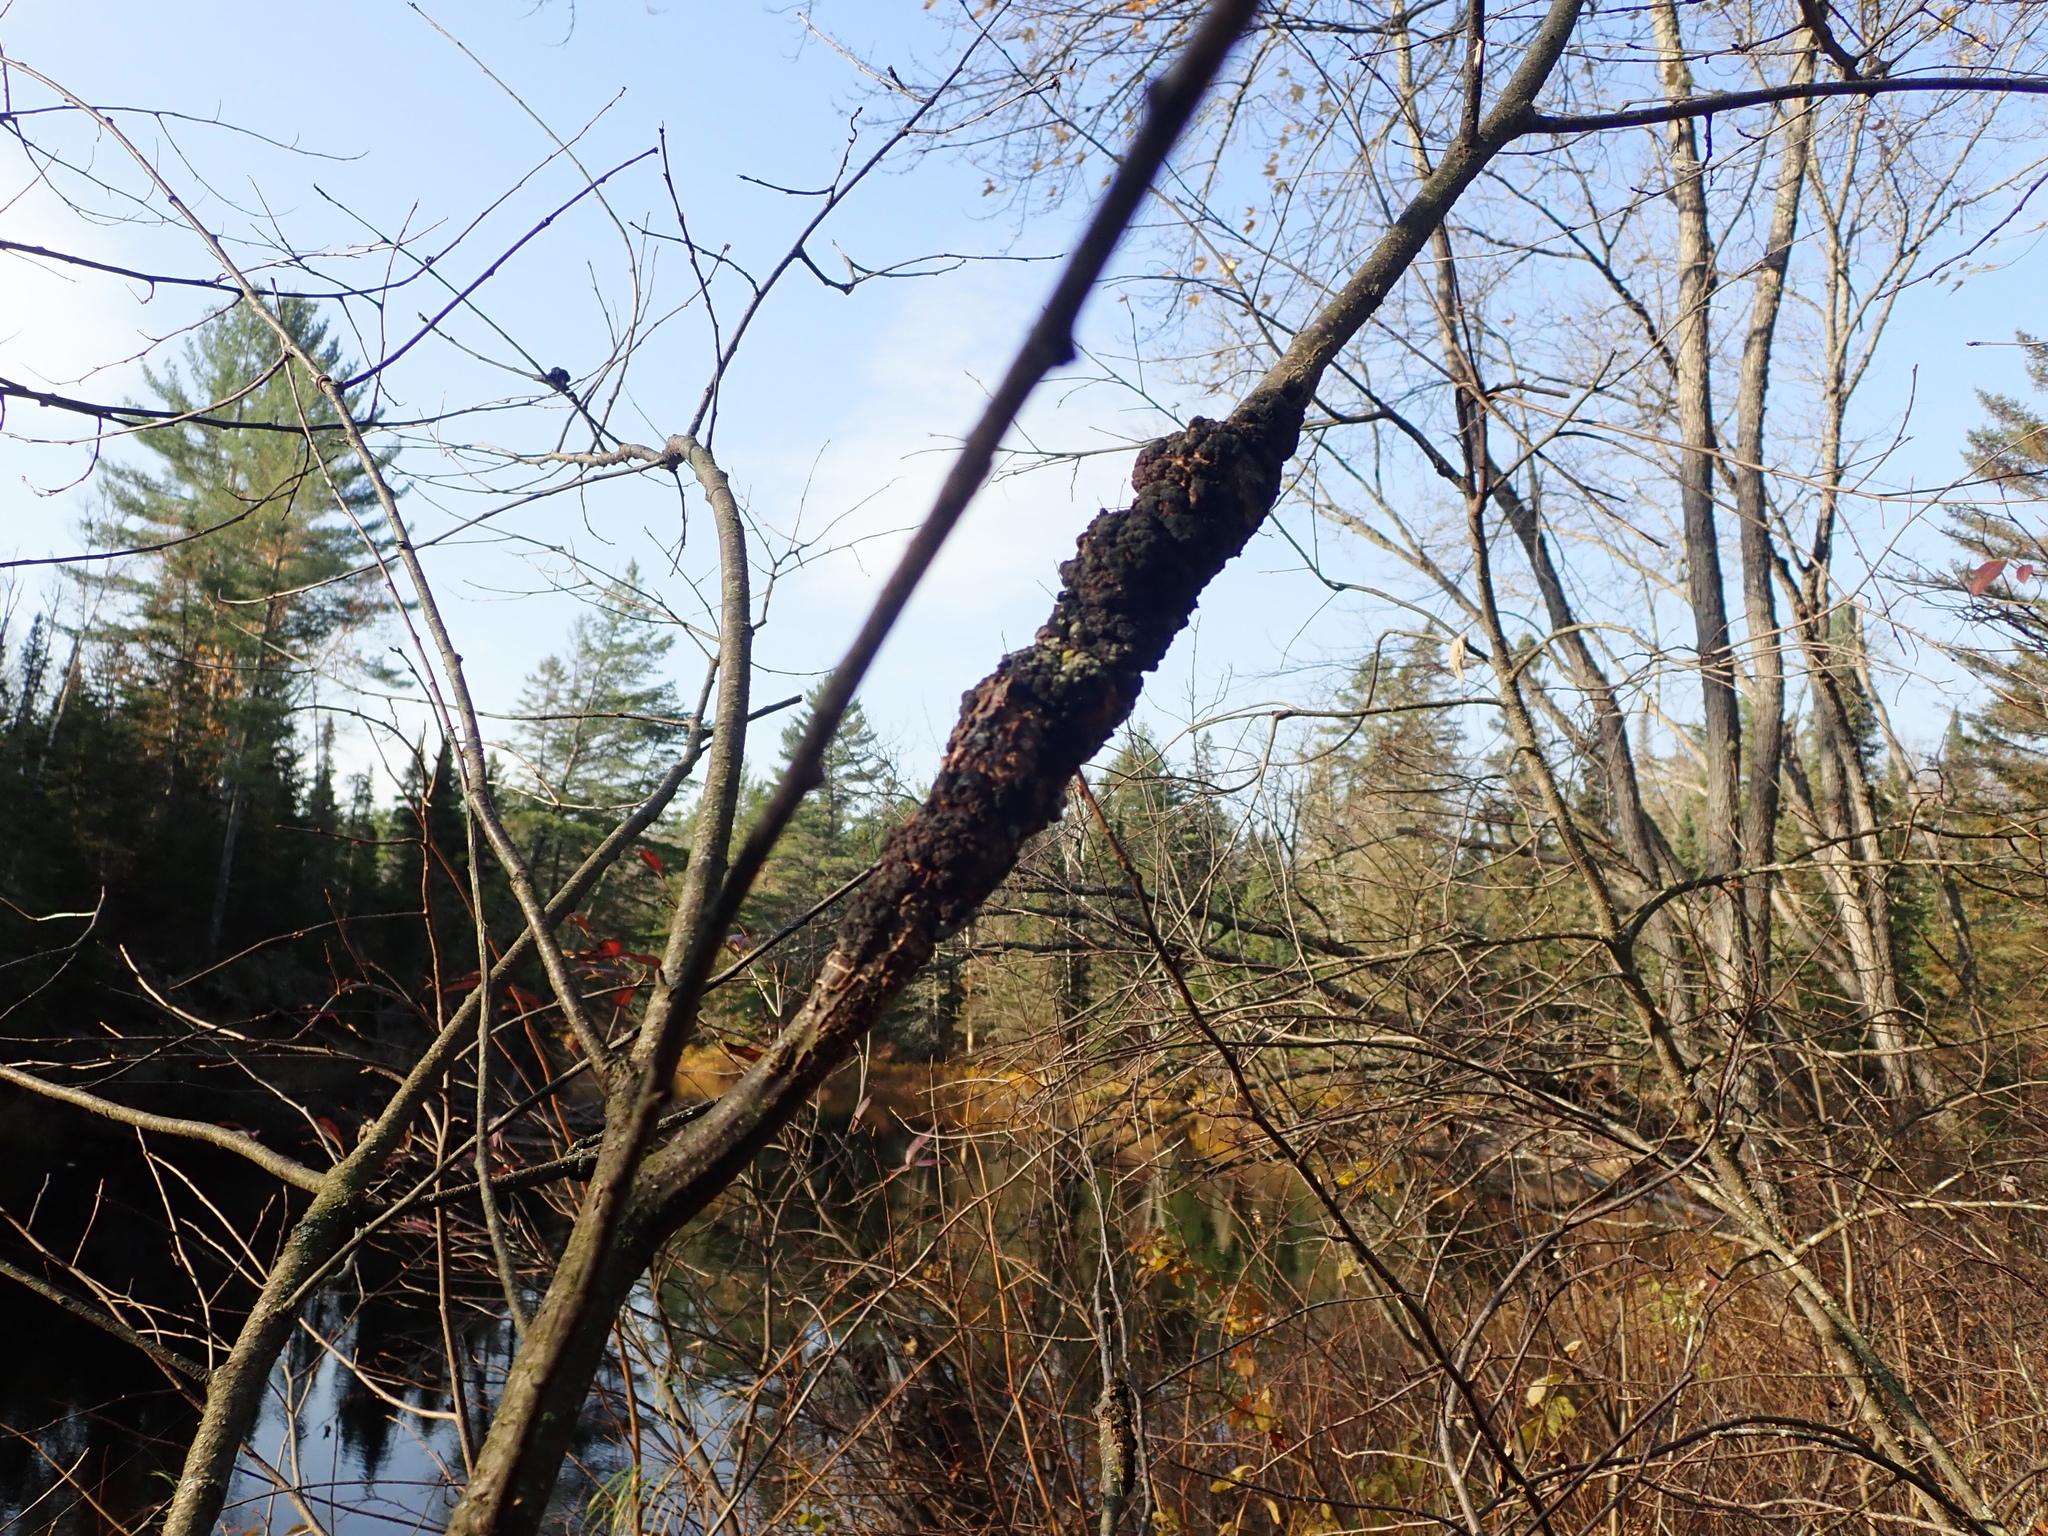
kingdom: Fungi
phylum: Ascomycota
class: Dothideomycetes
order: Venturiales
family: Venturiaceae
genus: Apiosporina
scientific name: Apiosporina morbosa
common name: Black knot
